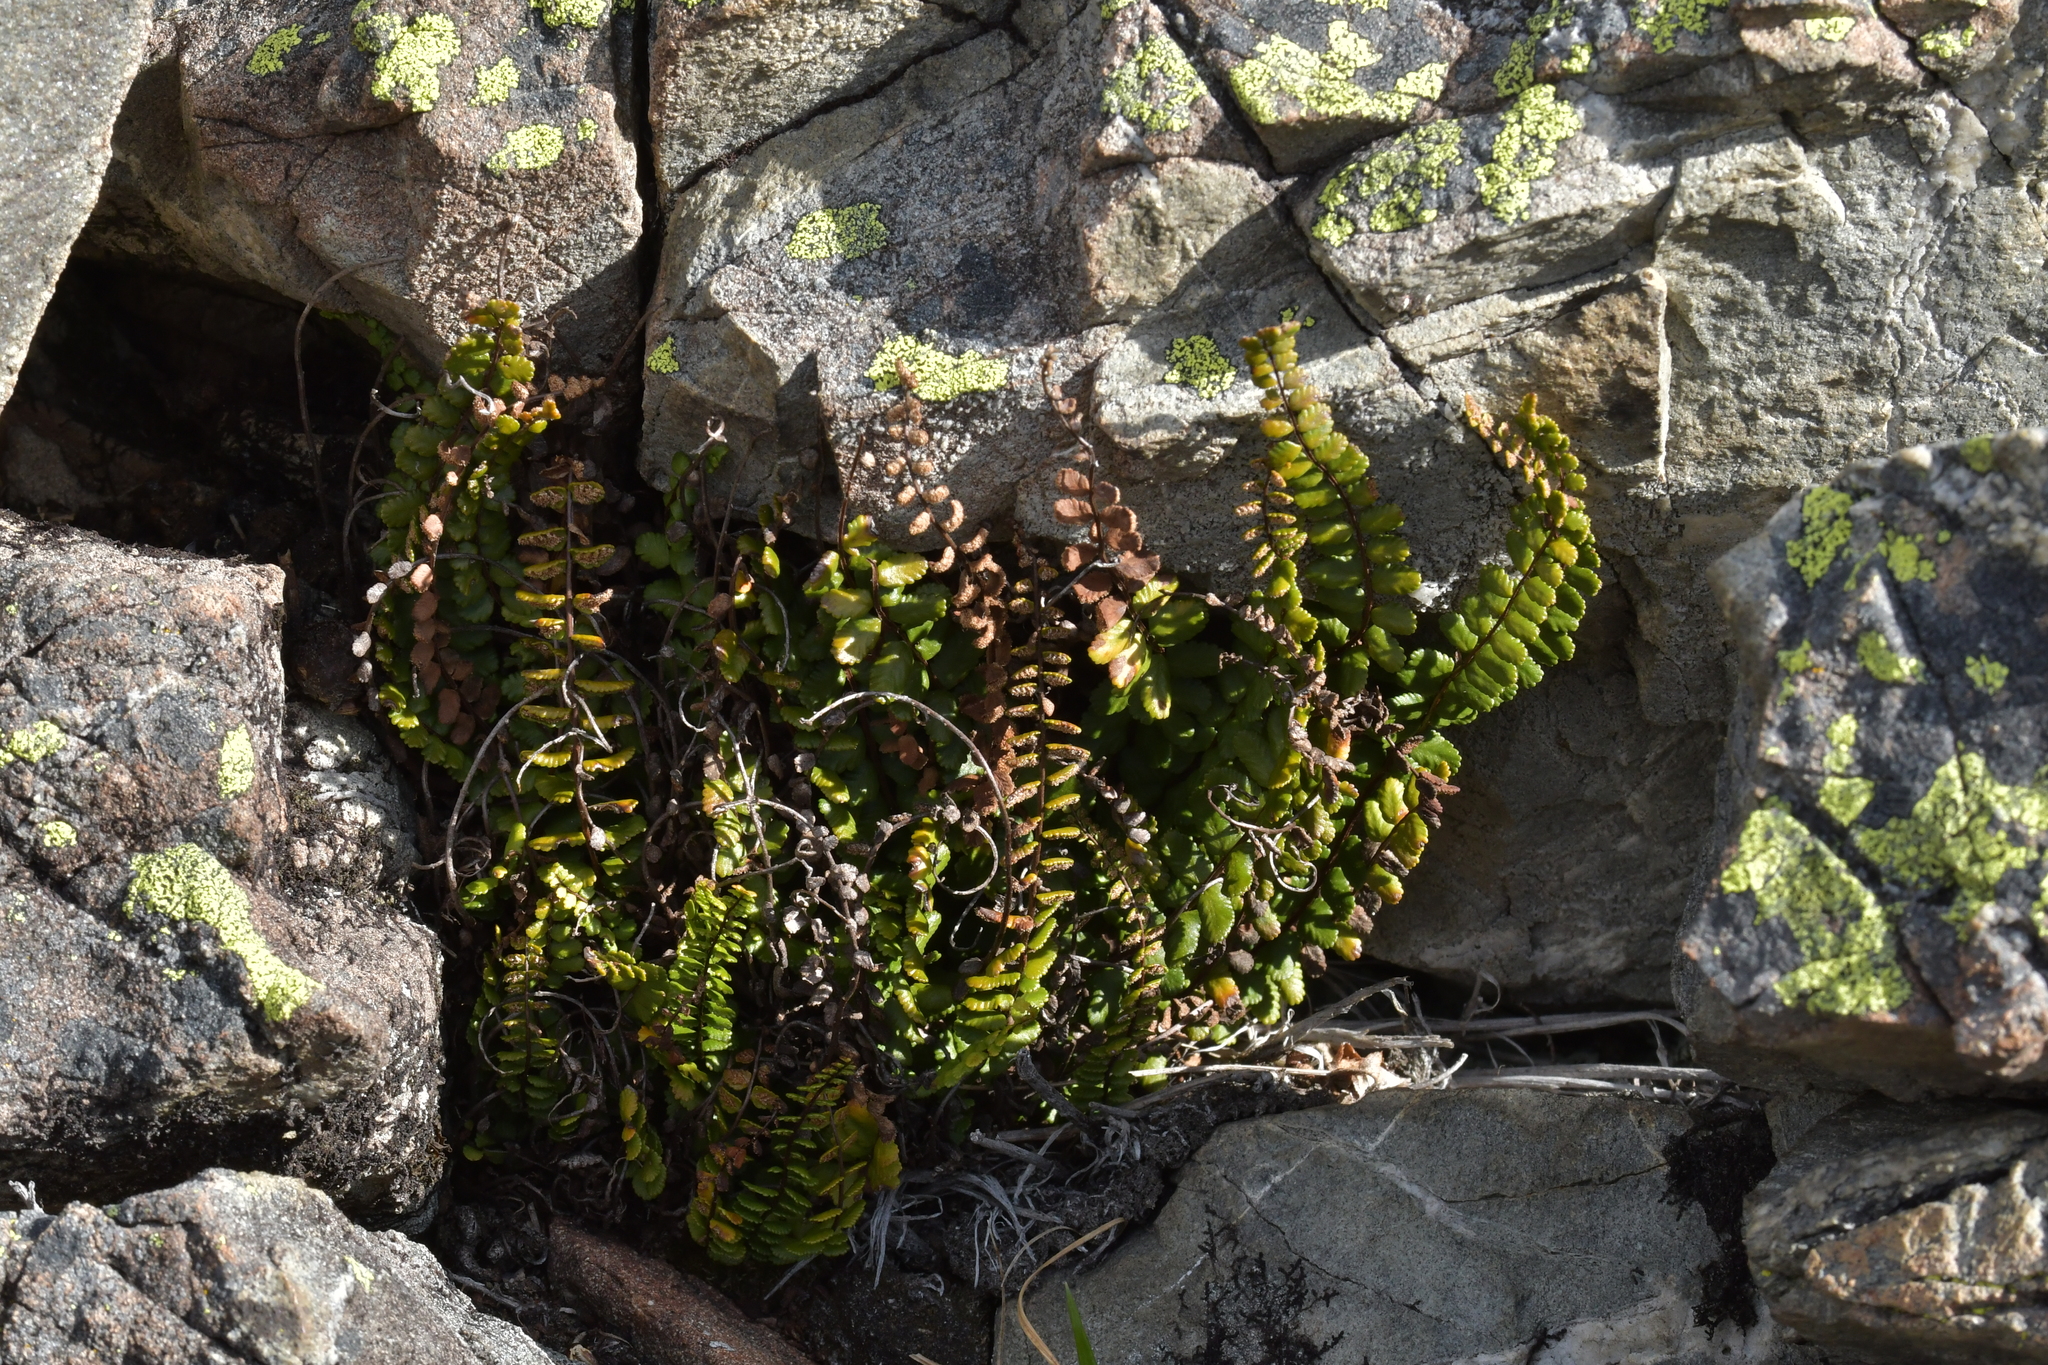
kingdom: Plantae
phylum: Tracheophyta
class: Polypodiopsida
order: Polypodiales
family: Aspleniaceae
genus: Asplenium
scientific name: Asplenium trichomanes
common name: Maidenhair spleenwort
